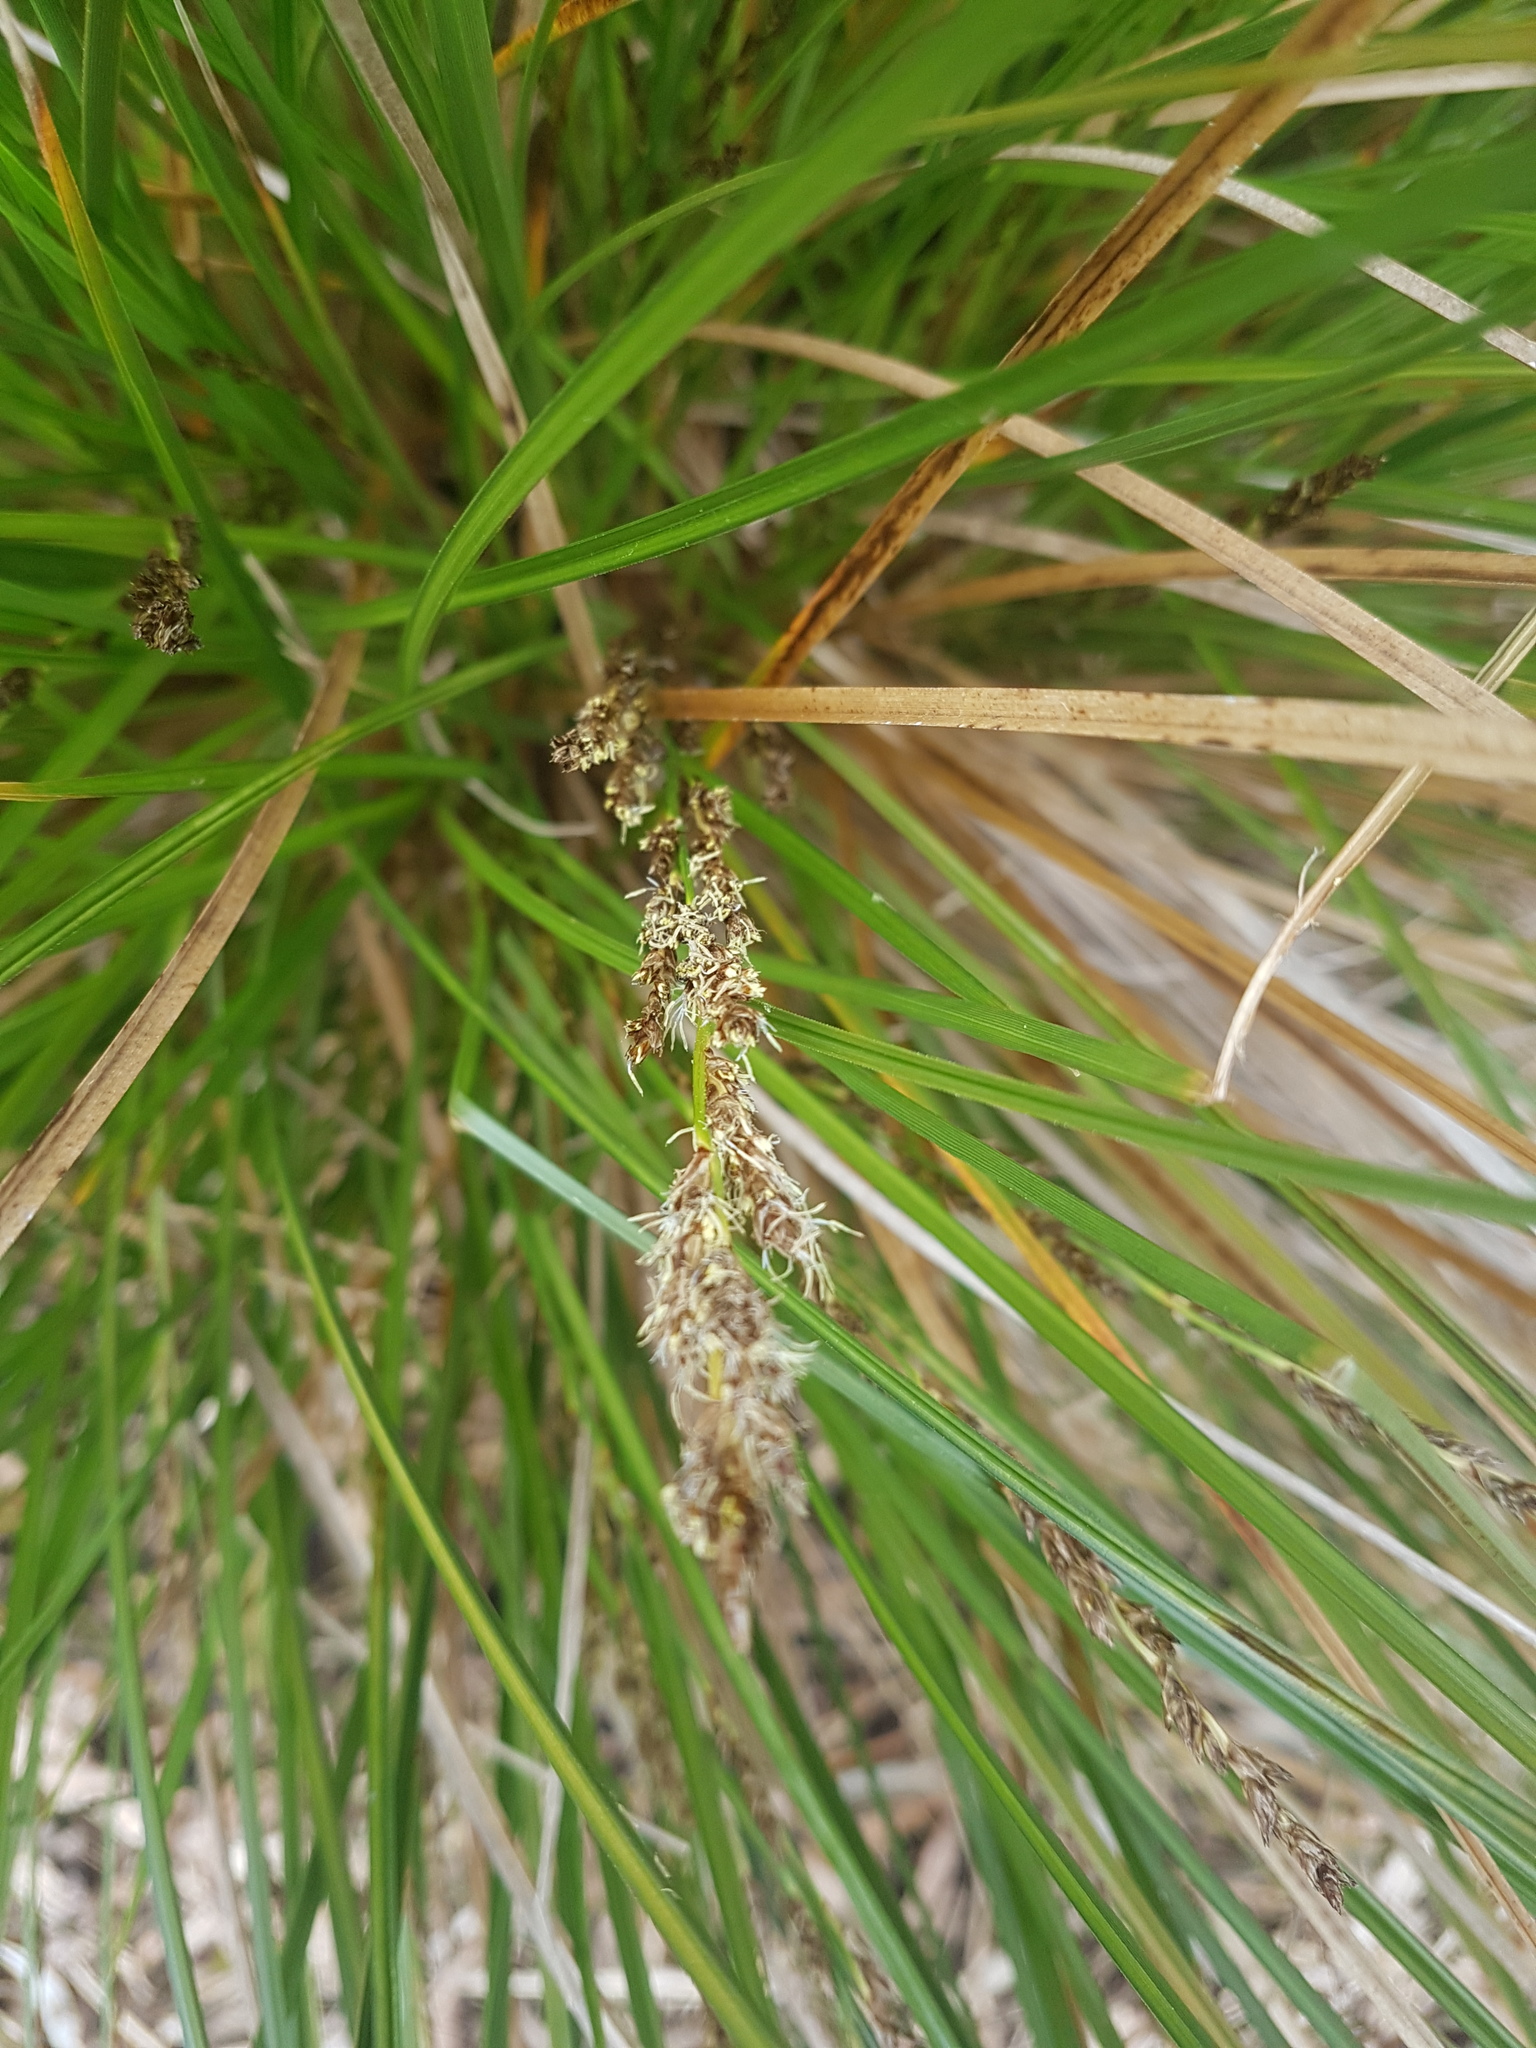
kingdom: Plantae
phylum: Tracheophyta
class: Liliopsida
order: Poales
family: Cyperaceae
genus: Carex
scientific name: Carex virgata
